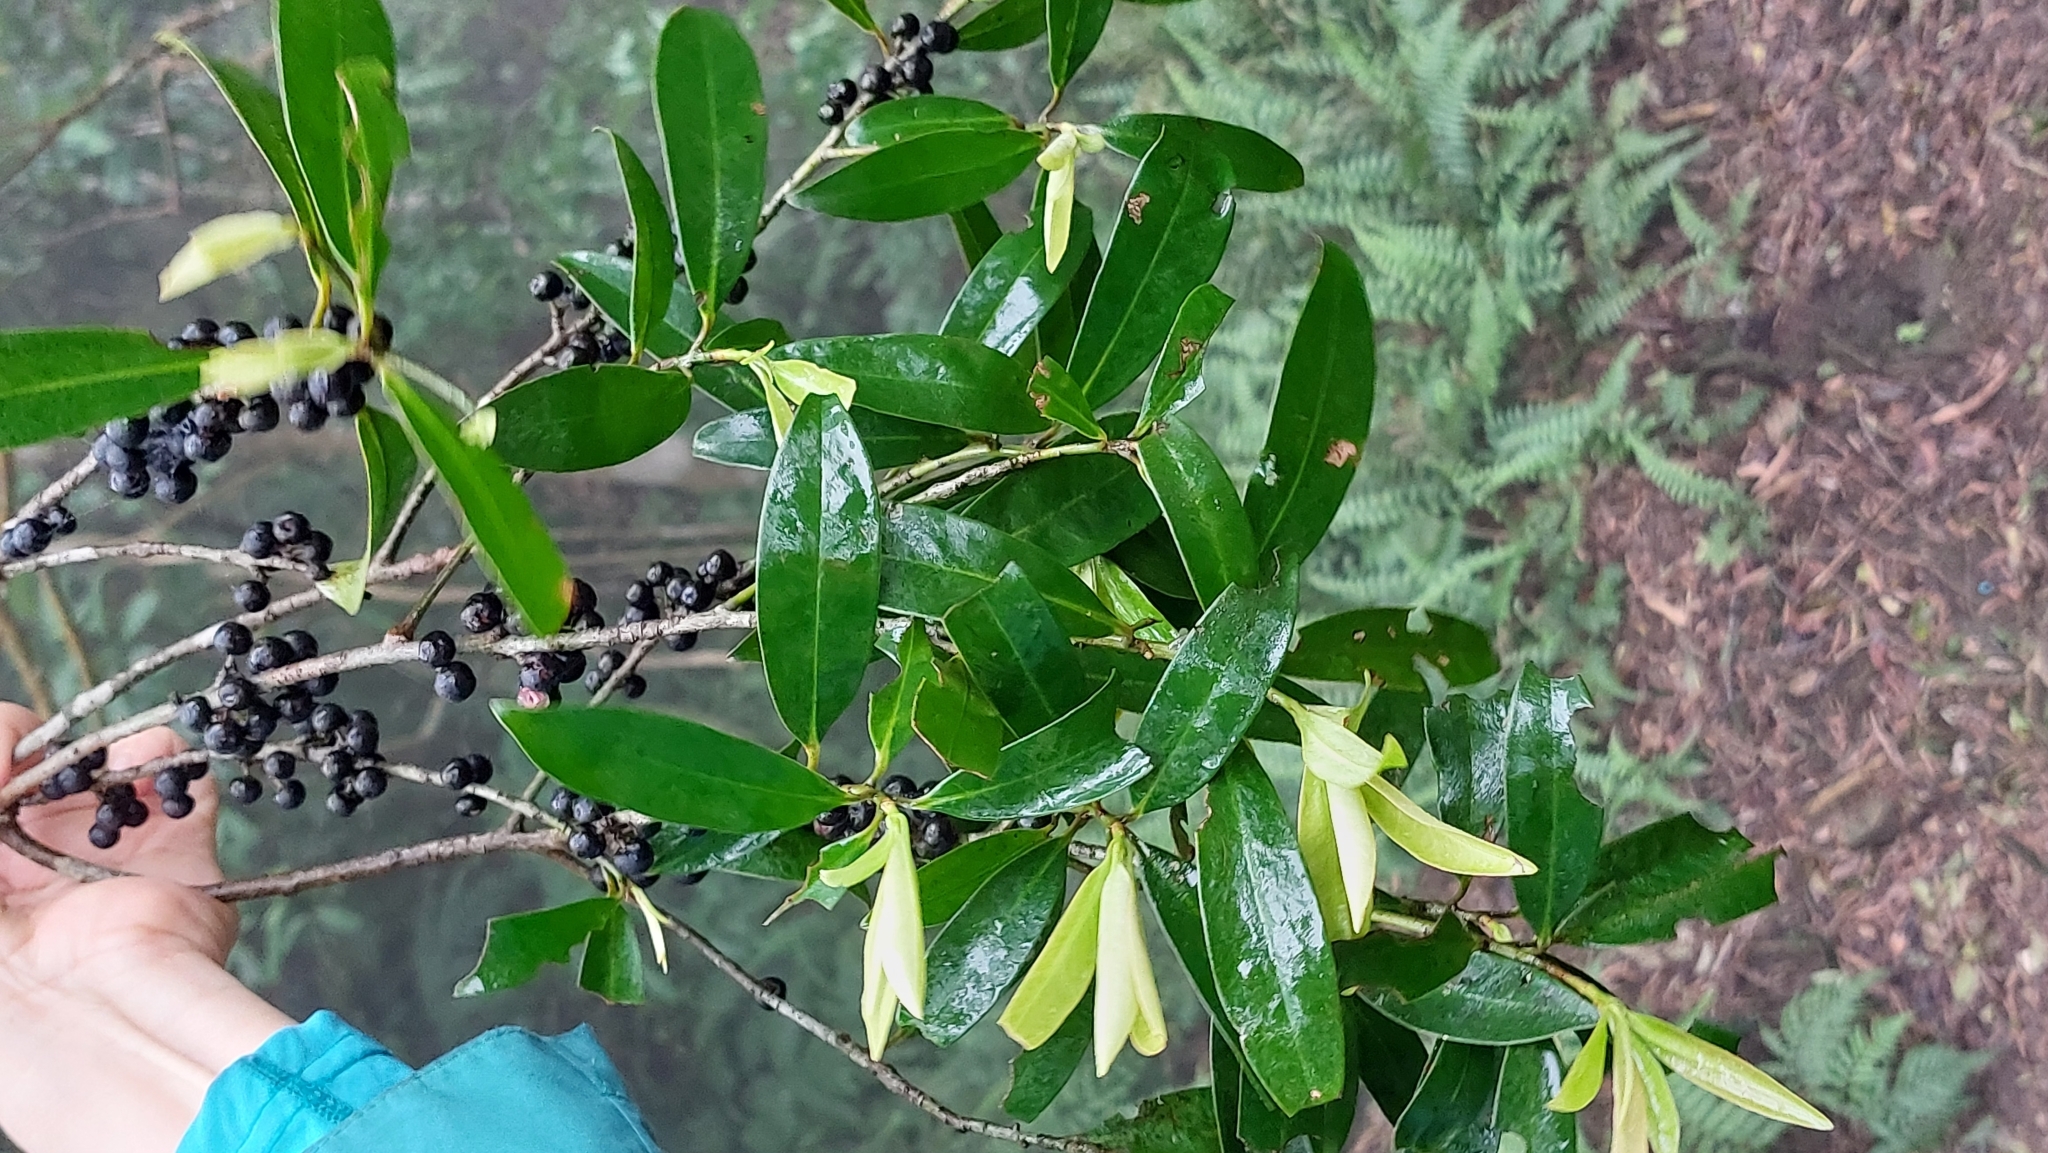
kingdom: Plantae
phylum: Tracheophyta
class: Magnoliopsida
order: Ericales
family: Primulaceae
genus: Myrsine
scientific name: Myrsine seguinii
